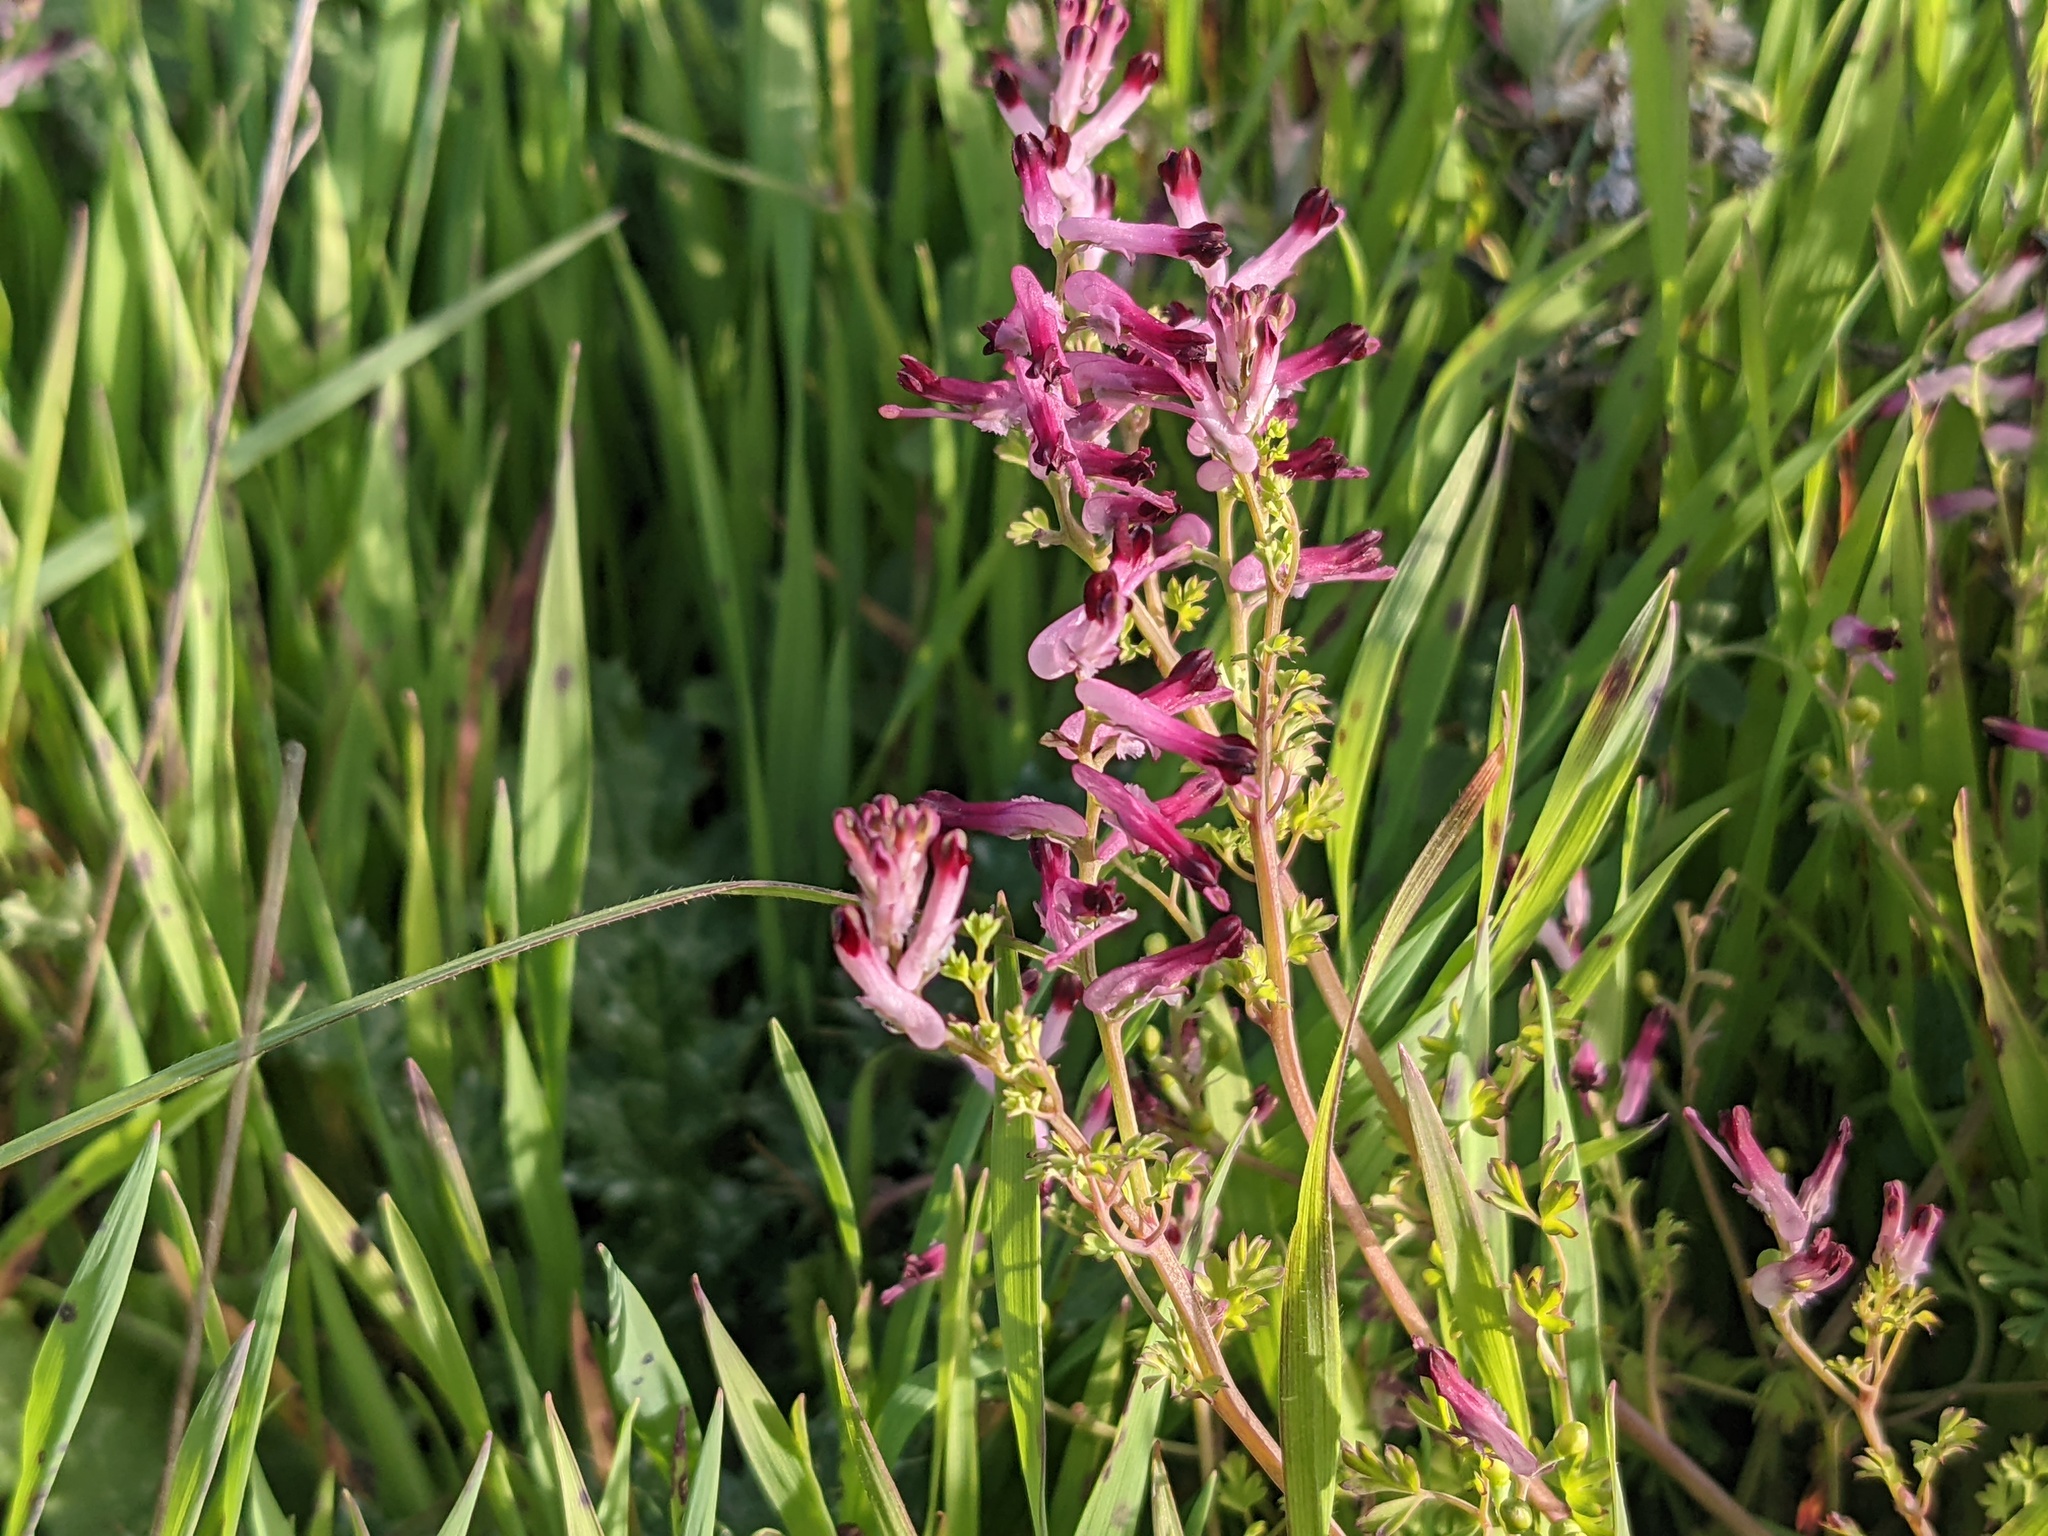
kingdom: Plantae
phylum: Tracheophyta
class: Magnoliopsida
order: Ranunculales
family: Papaveraceae
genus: Fumaria
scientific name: Fumaria muralis
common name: Common ramping-fumitory
